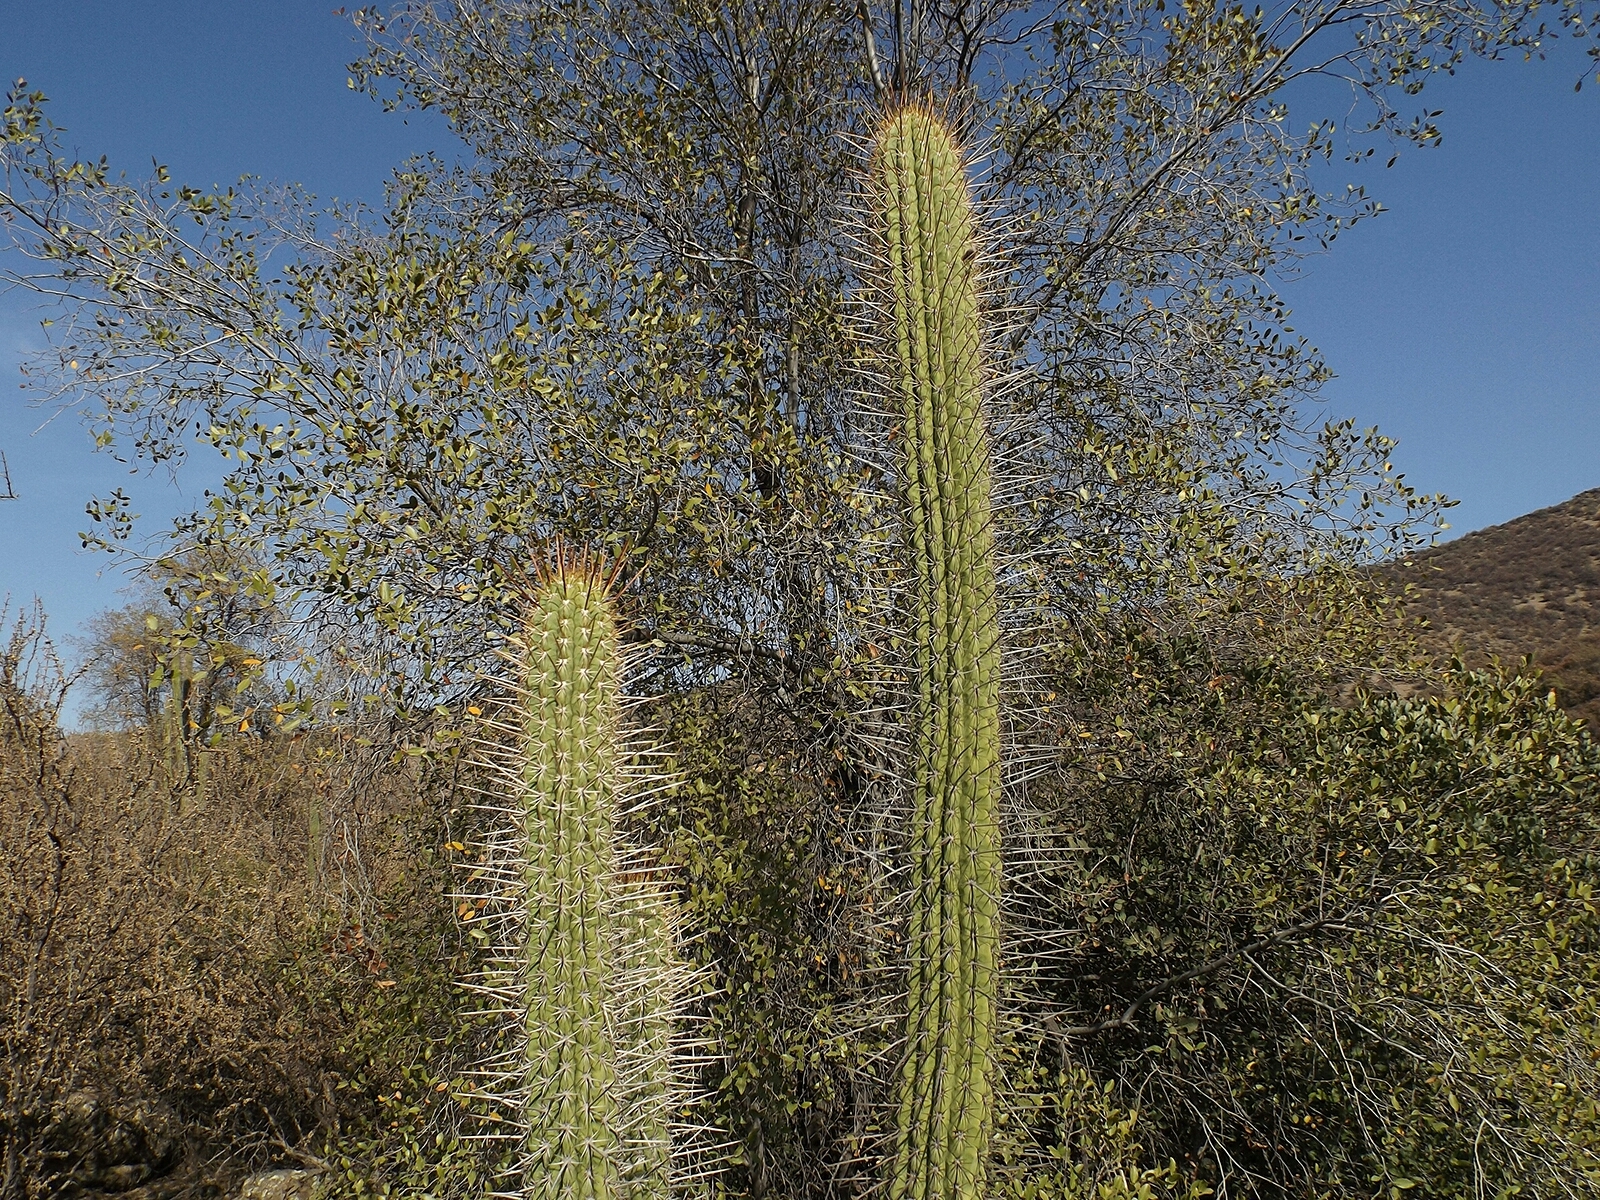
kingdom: Plantae
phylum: Tracheophyta
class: Magnoliopsida
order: Caryophyllales
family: Cactaceae
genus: Leucostele
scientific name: Leucostele chiloensis
